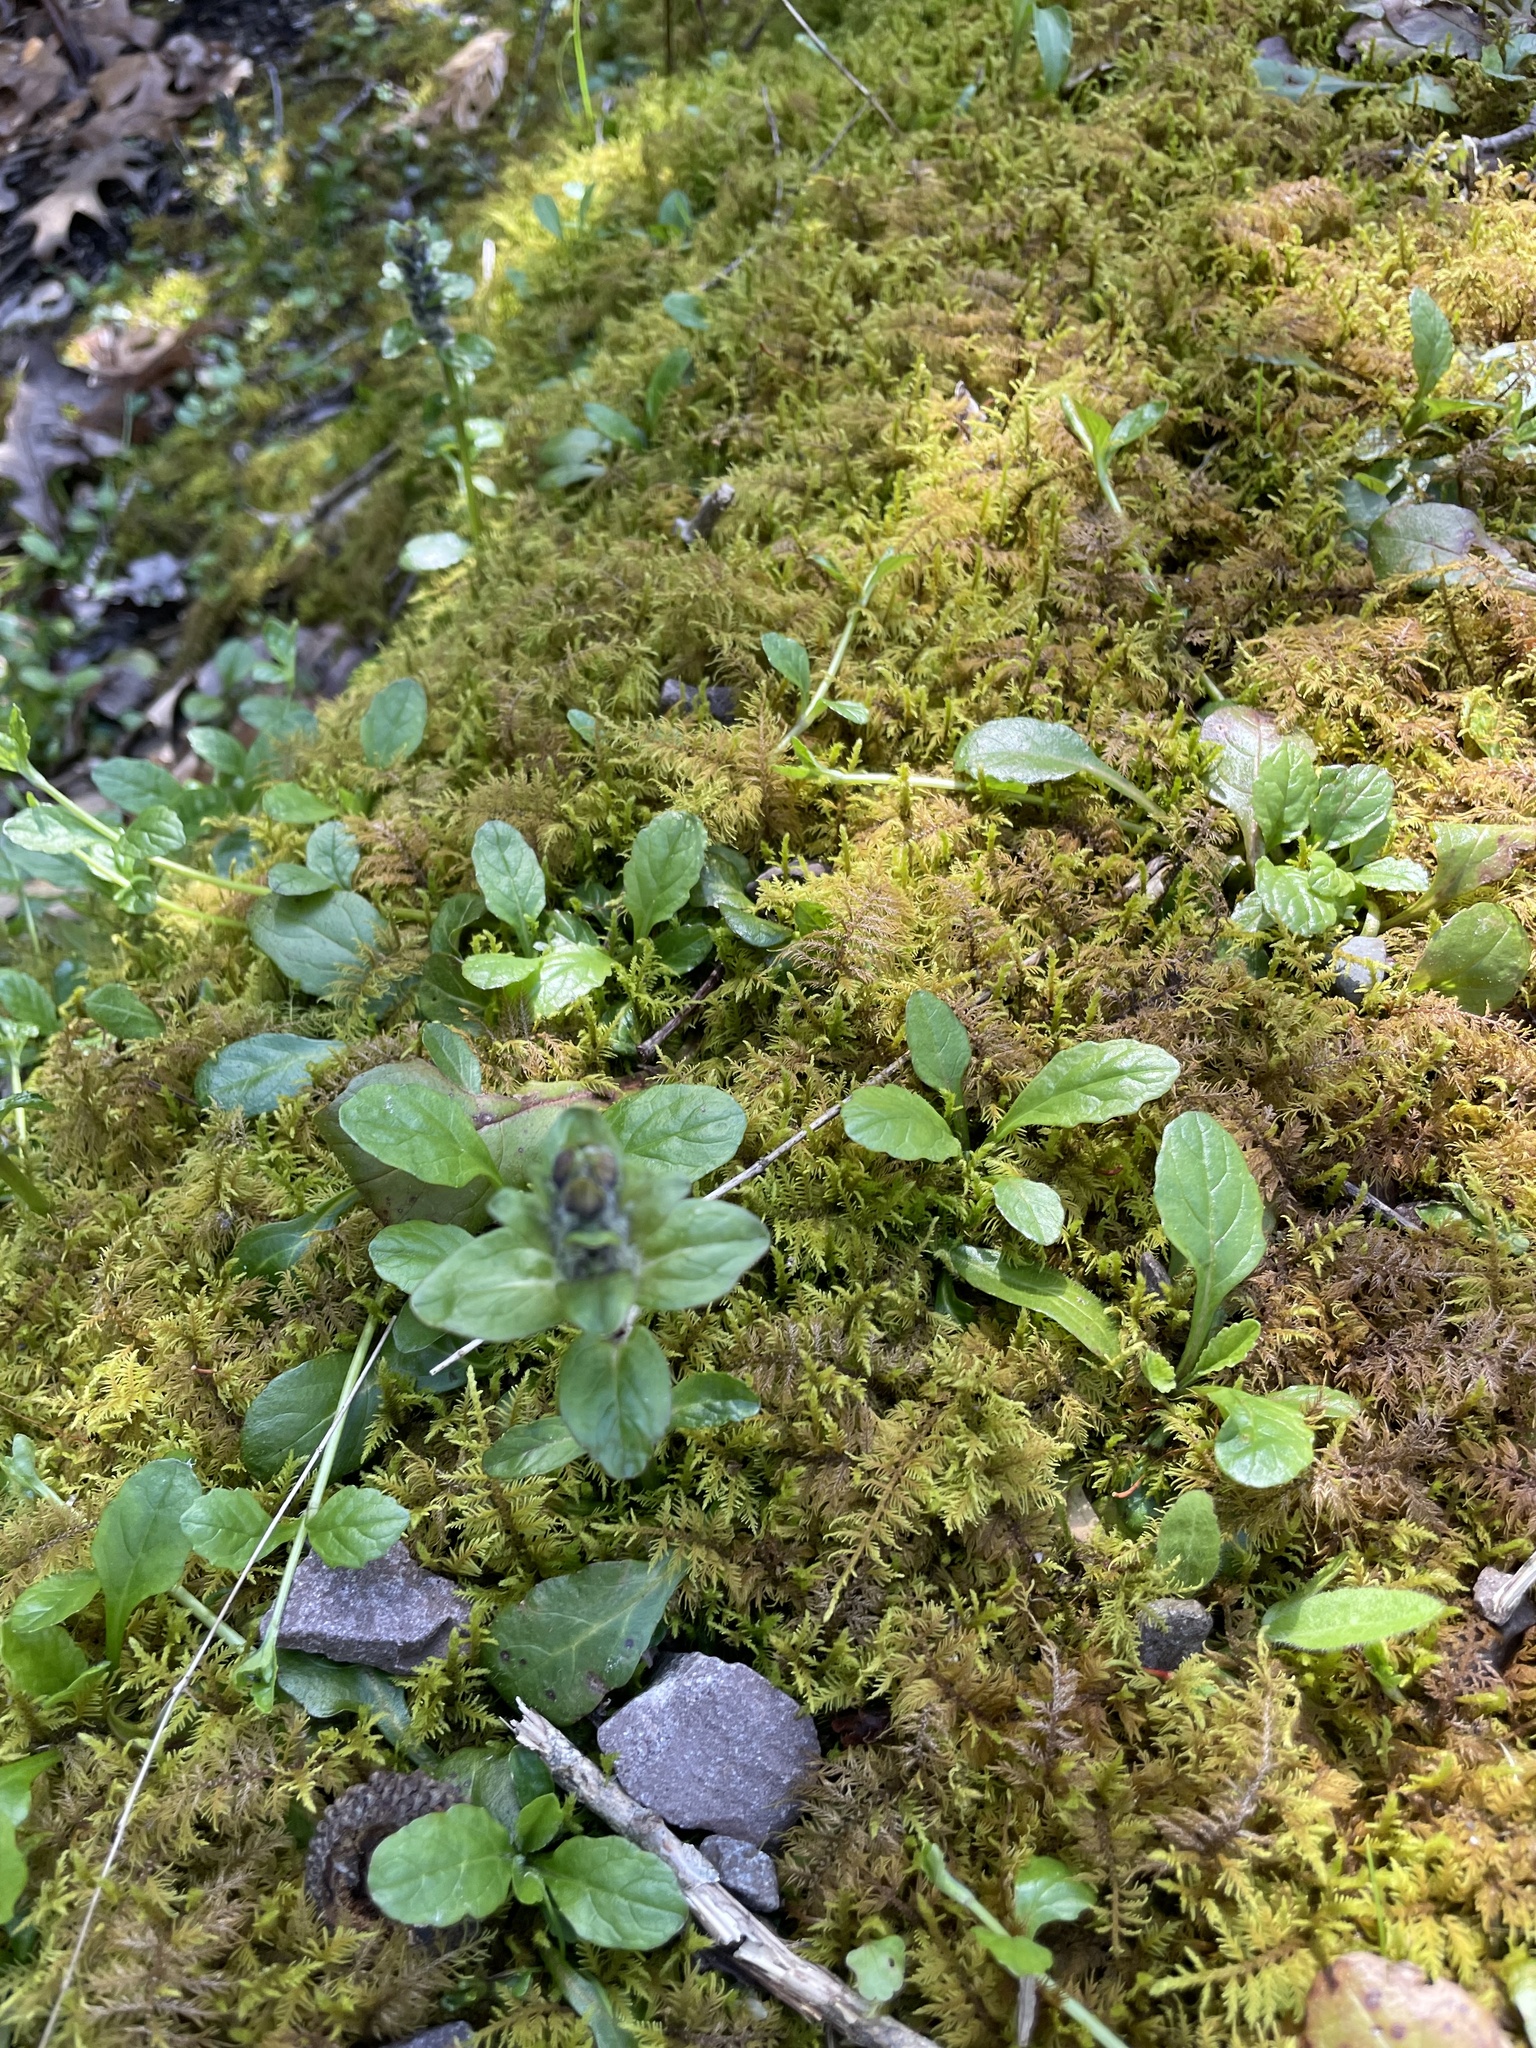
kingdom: Plantae
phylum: Tracheophyta
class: Magnoliopsida
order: Lamiales
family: Lamiaceae
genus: Ajuga
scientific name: Ajuga reptans
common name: Bugle
